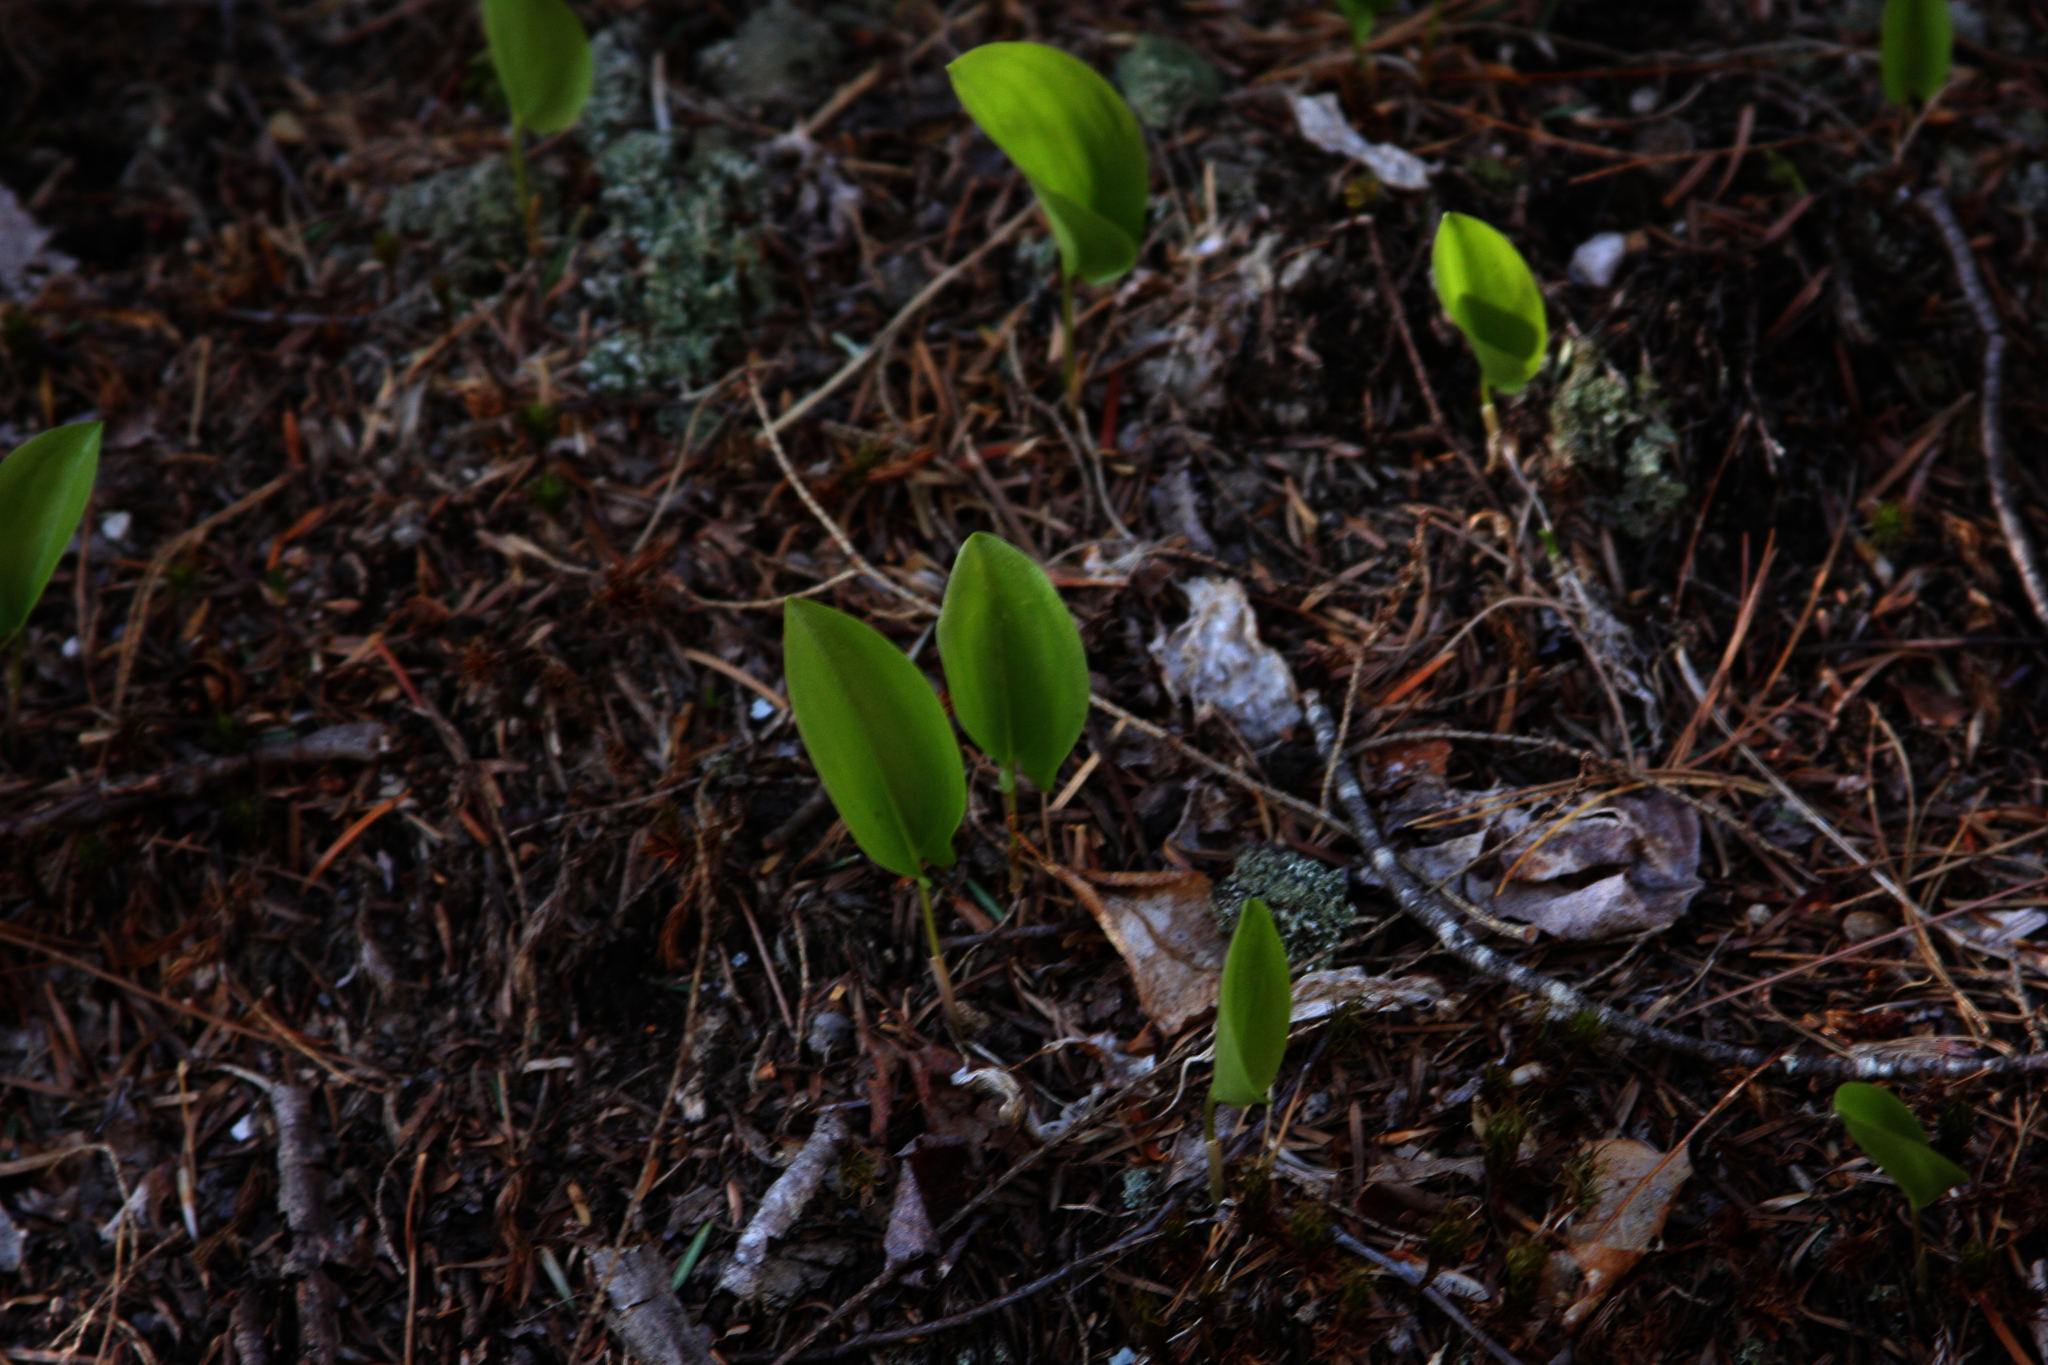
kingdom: Plantae
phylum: Tracheophyta
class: Liliopsida
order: Asparagales
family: Asparagaceae
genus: Maianthemum
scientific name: Maianthemum canadense
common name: False lily-of-the-valley
